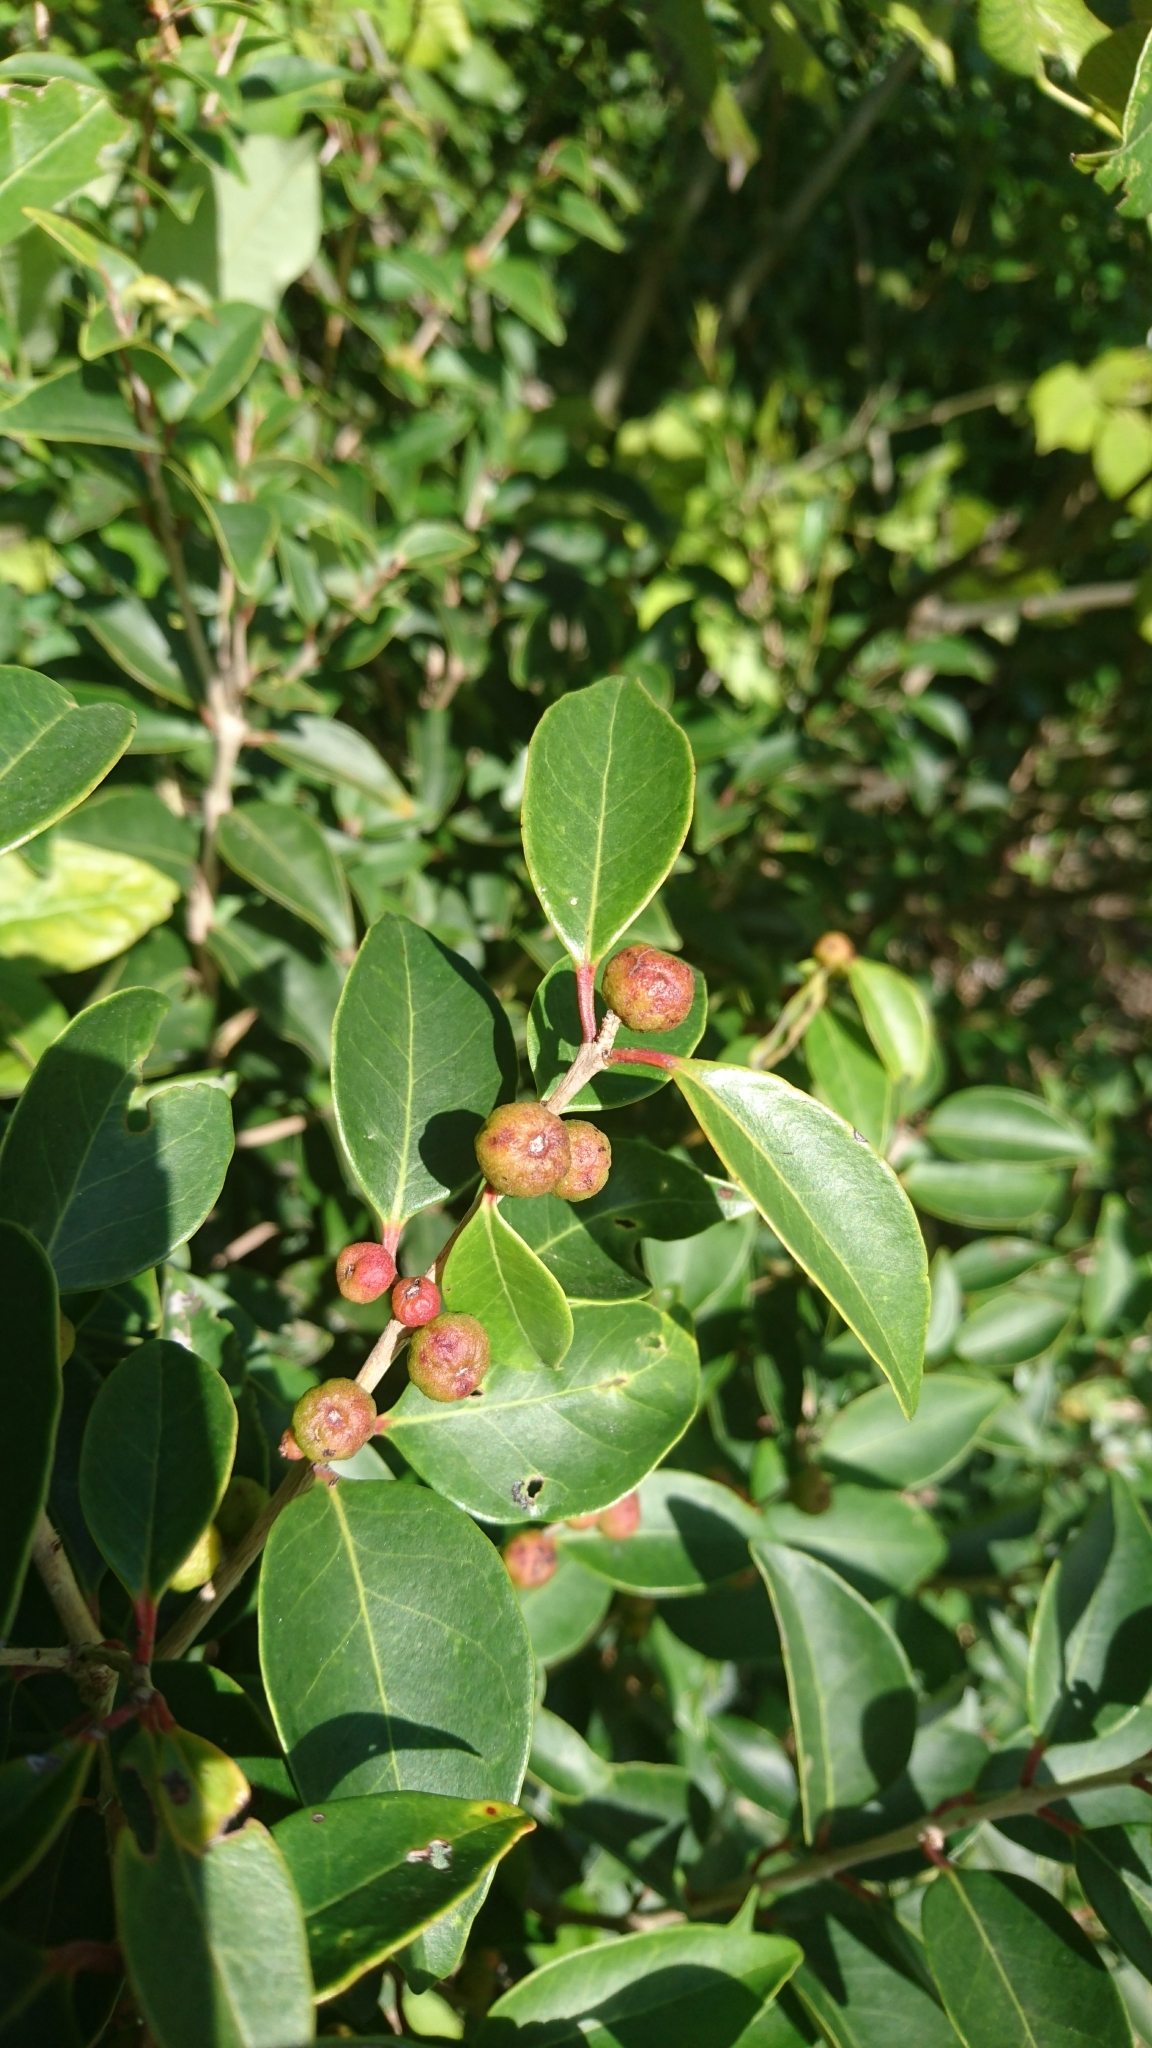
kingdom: Plantae
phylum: Tracheophyta
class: Magnoliopsida
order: Myrtales
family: Myrtaceae
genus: Eugenia
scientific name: Eugenia axillaris
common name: Choaky berry
